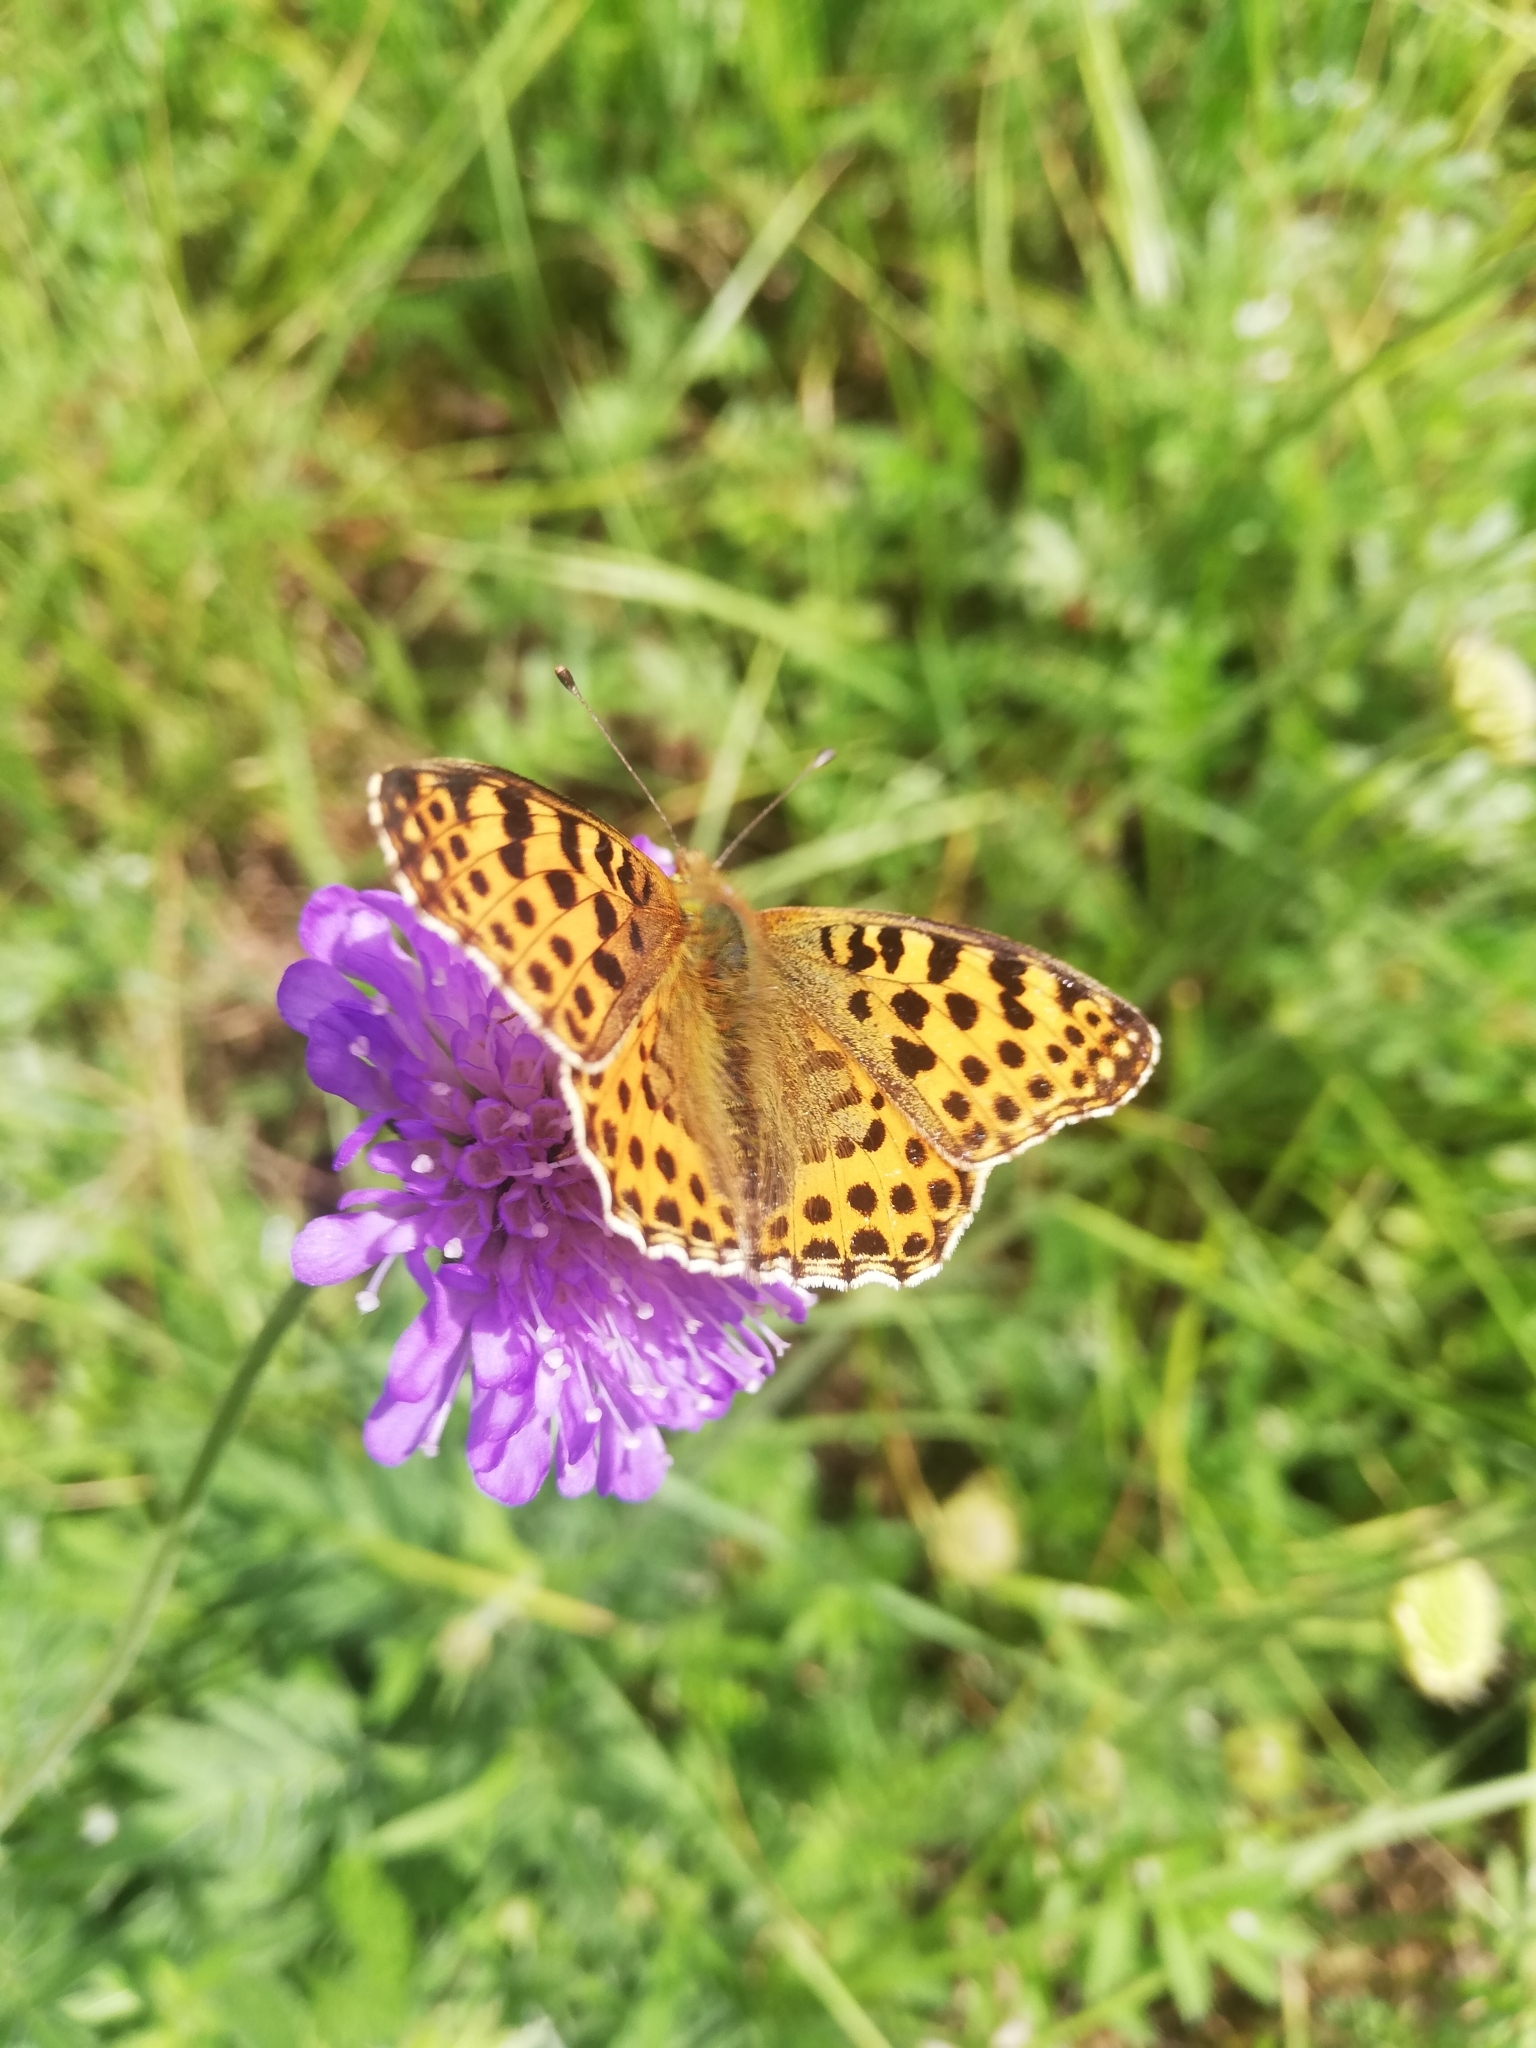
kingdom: Animalia
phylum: Arthropoda
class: Insecta
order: Lepidoptera
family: Nymphalidae
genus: Issoria
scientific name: Issoria lathonia
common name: Queen of spain fritillary
